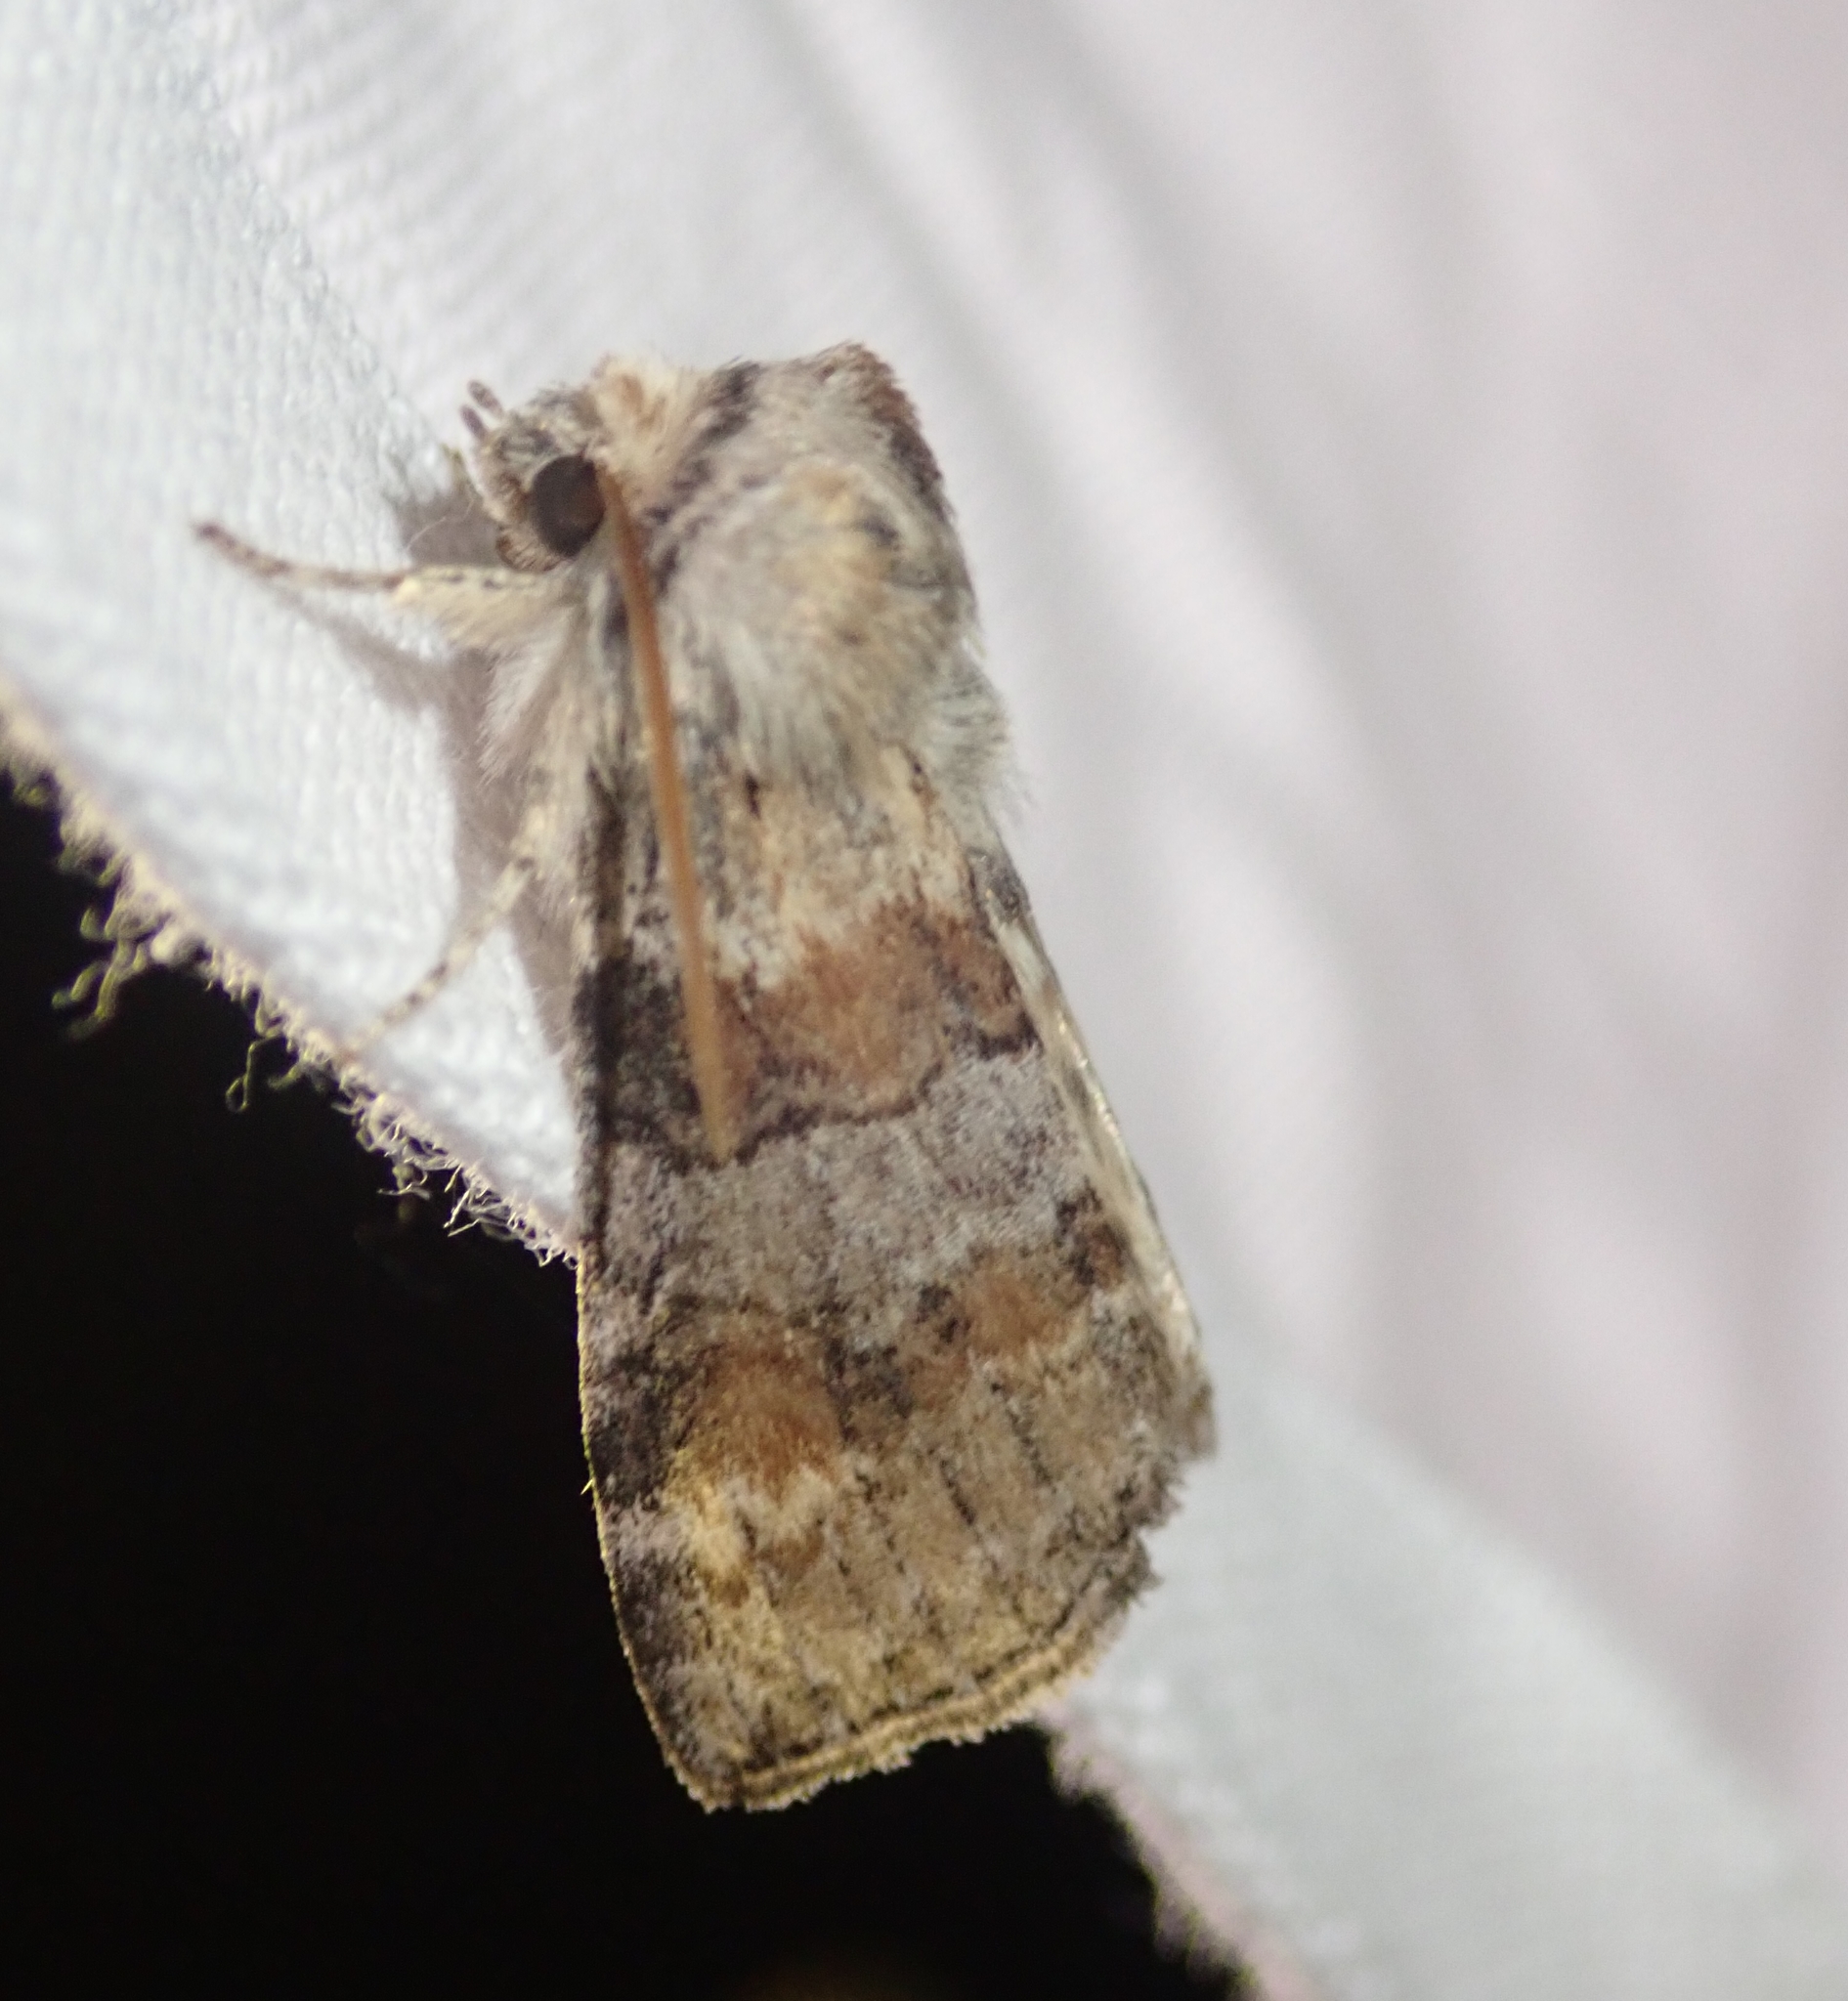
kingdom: Animalia
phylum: Arthropoda
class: Insecta
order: Lepidoptera
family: Drepanidae
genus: Cymatophorina
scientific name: Cymatophorina diluta
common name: Oak lutestring
